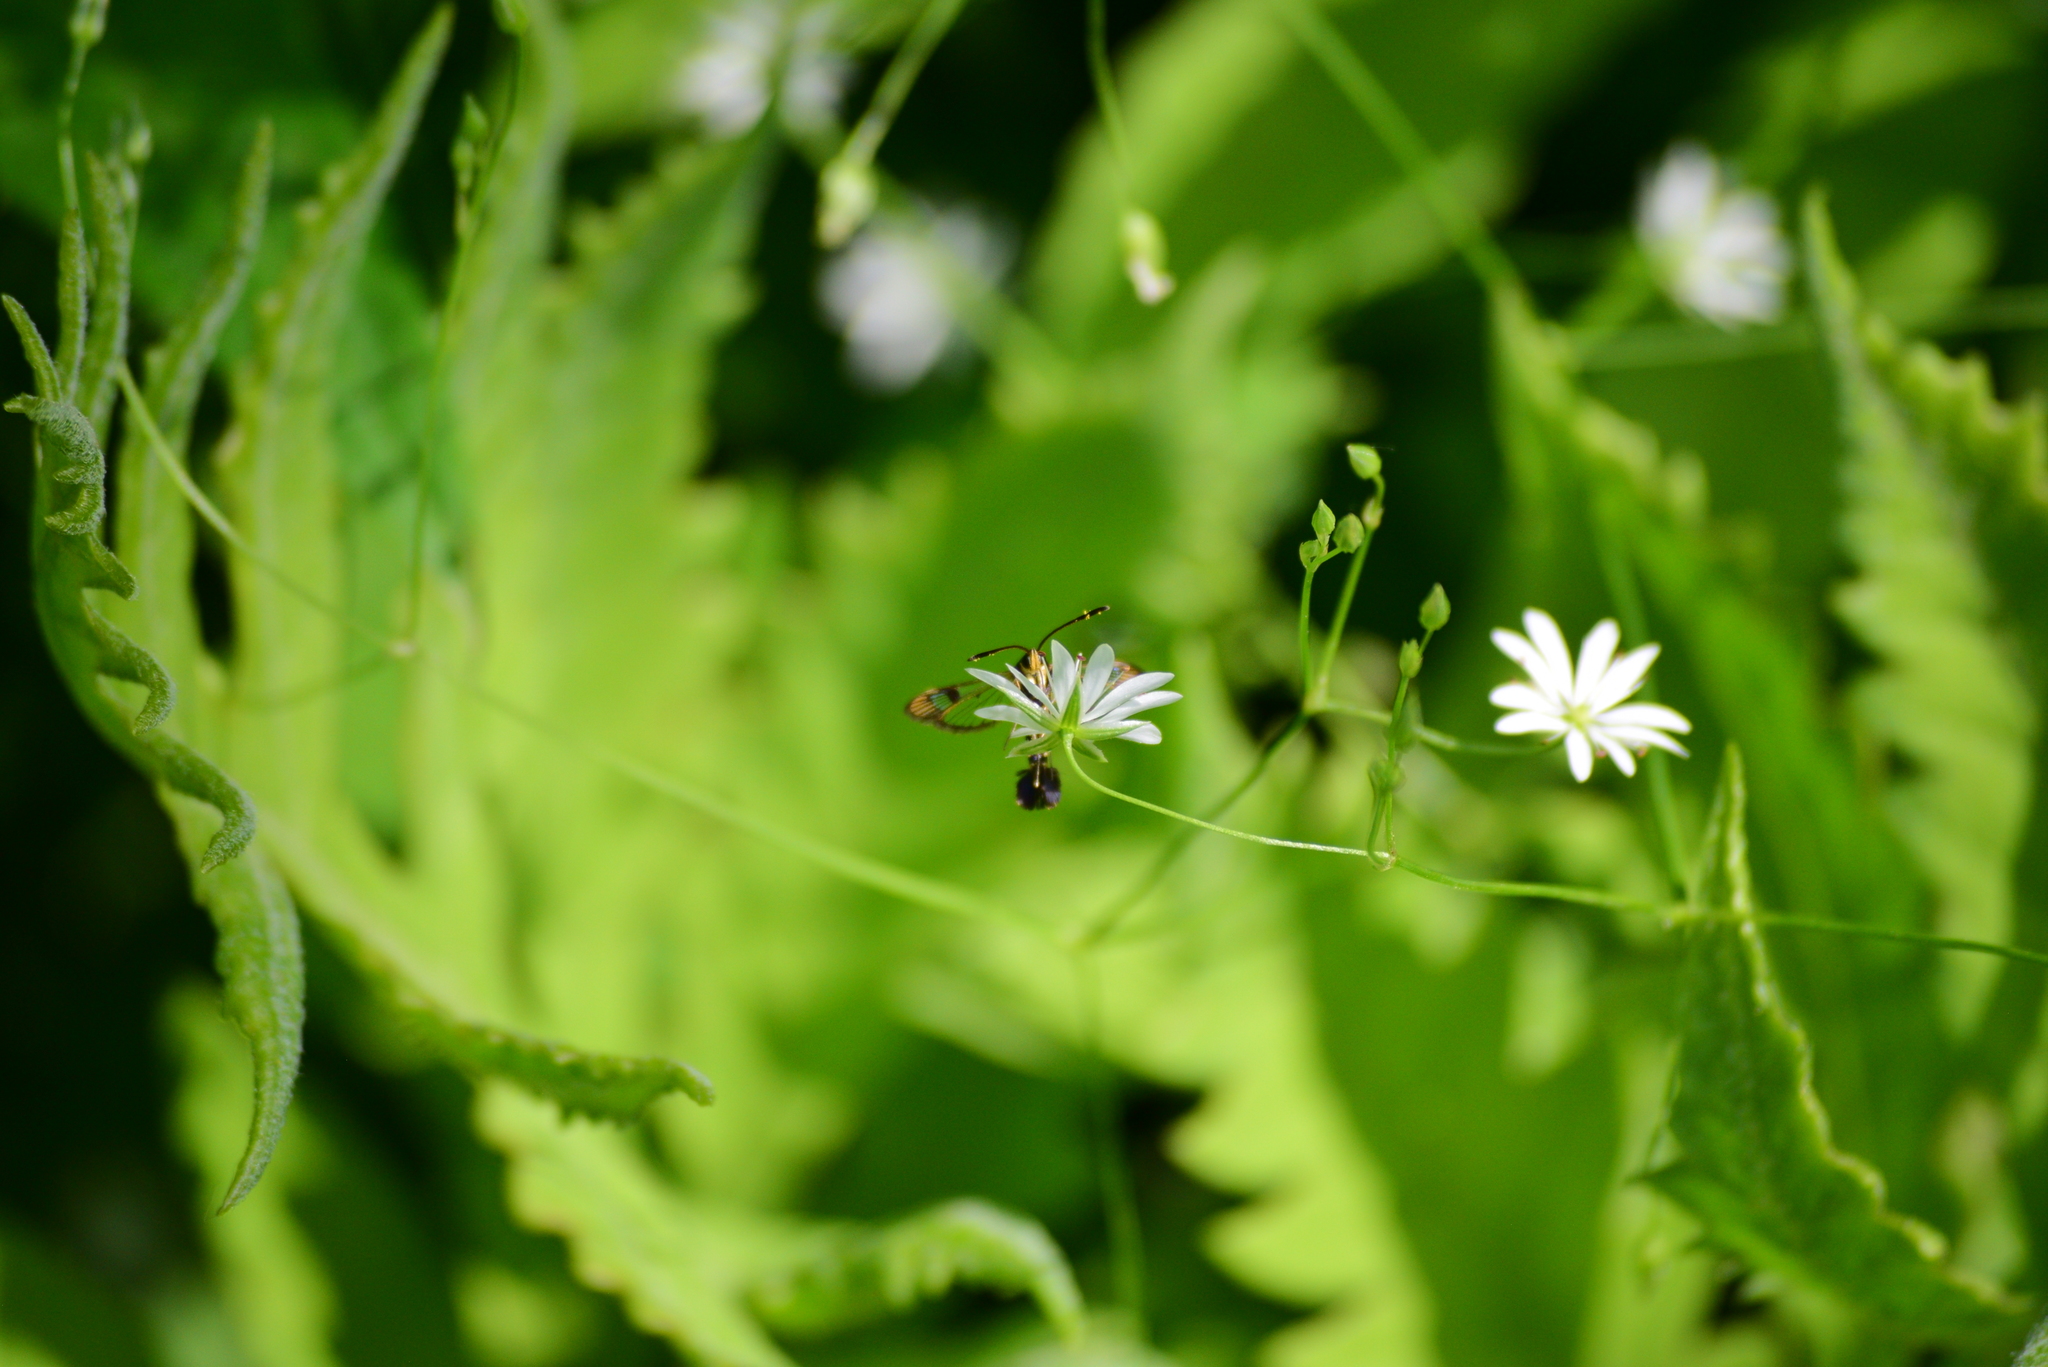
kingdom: Animalia
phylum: Arthropoda
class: Insecta
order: Lepidoptera
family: Sesiidae
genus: Synanthedon
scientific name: Synanthedon tipuliformis
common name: Currant clearwing
